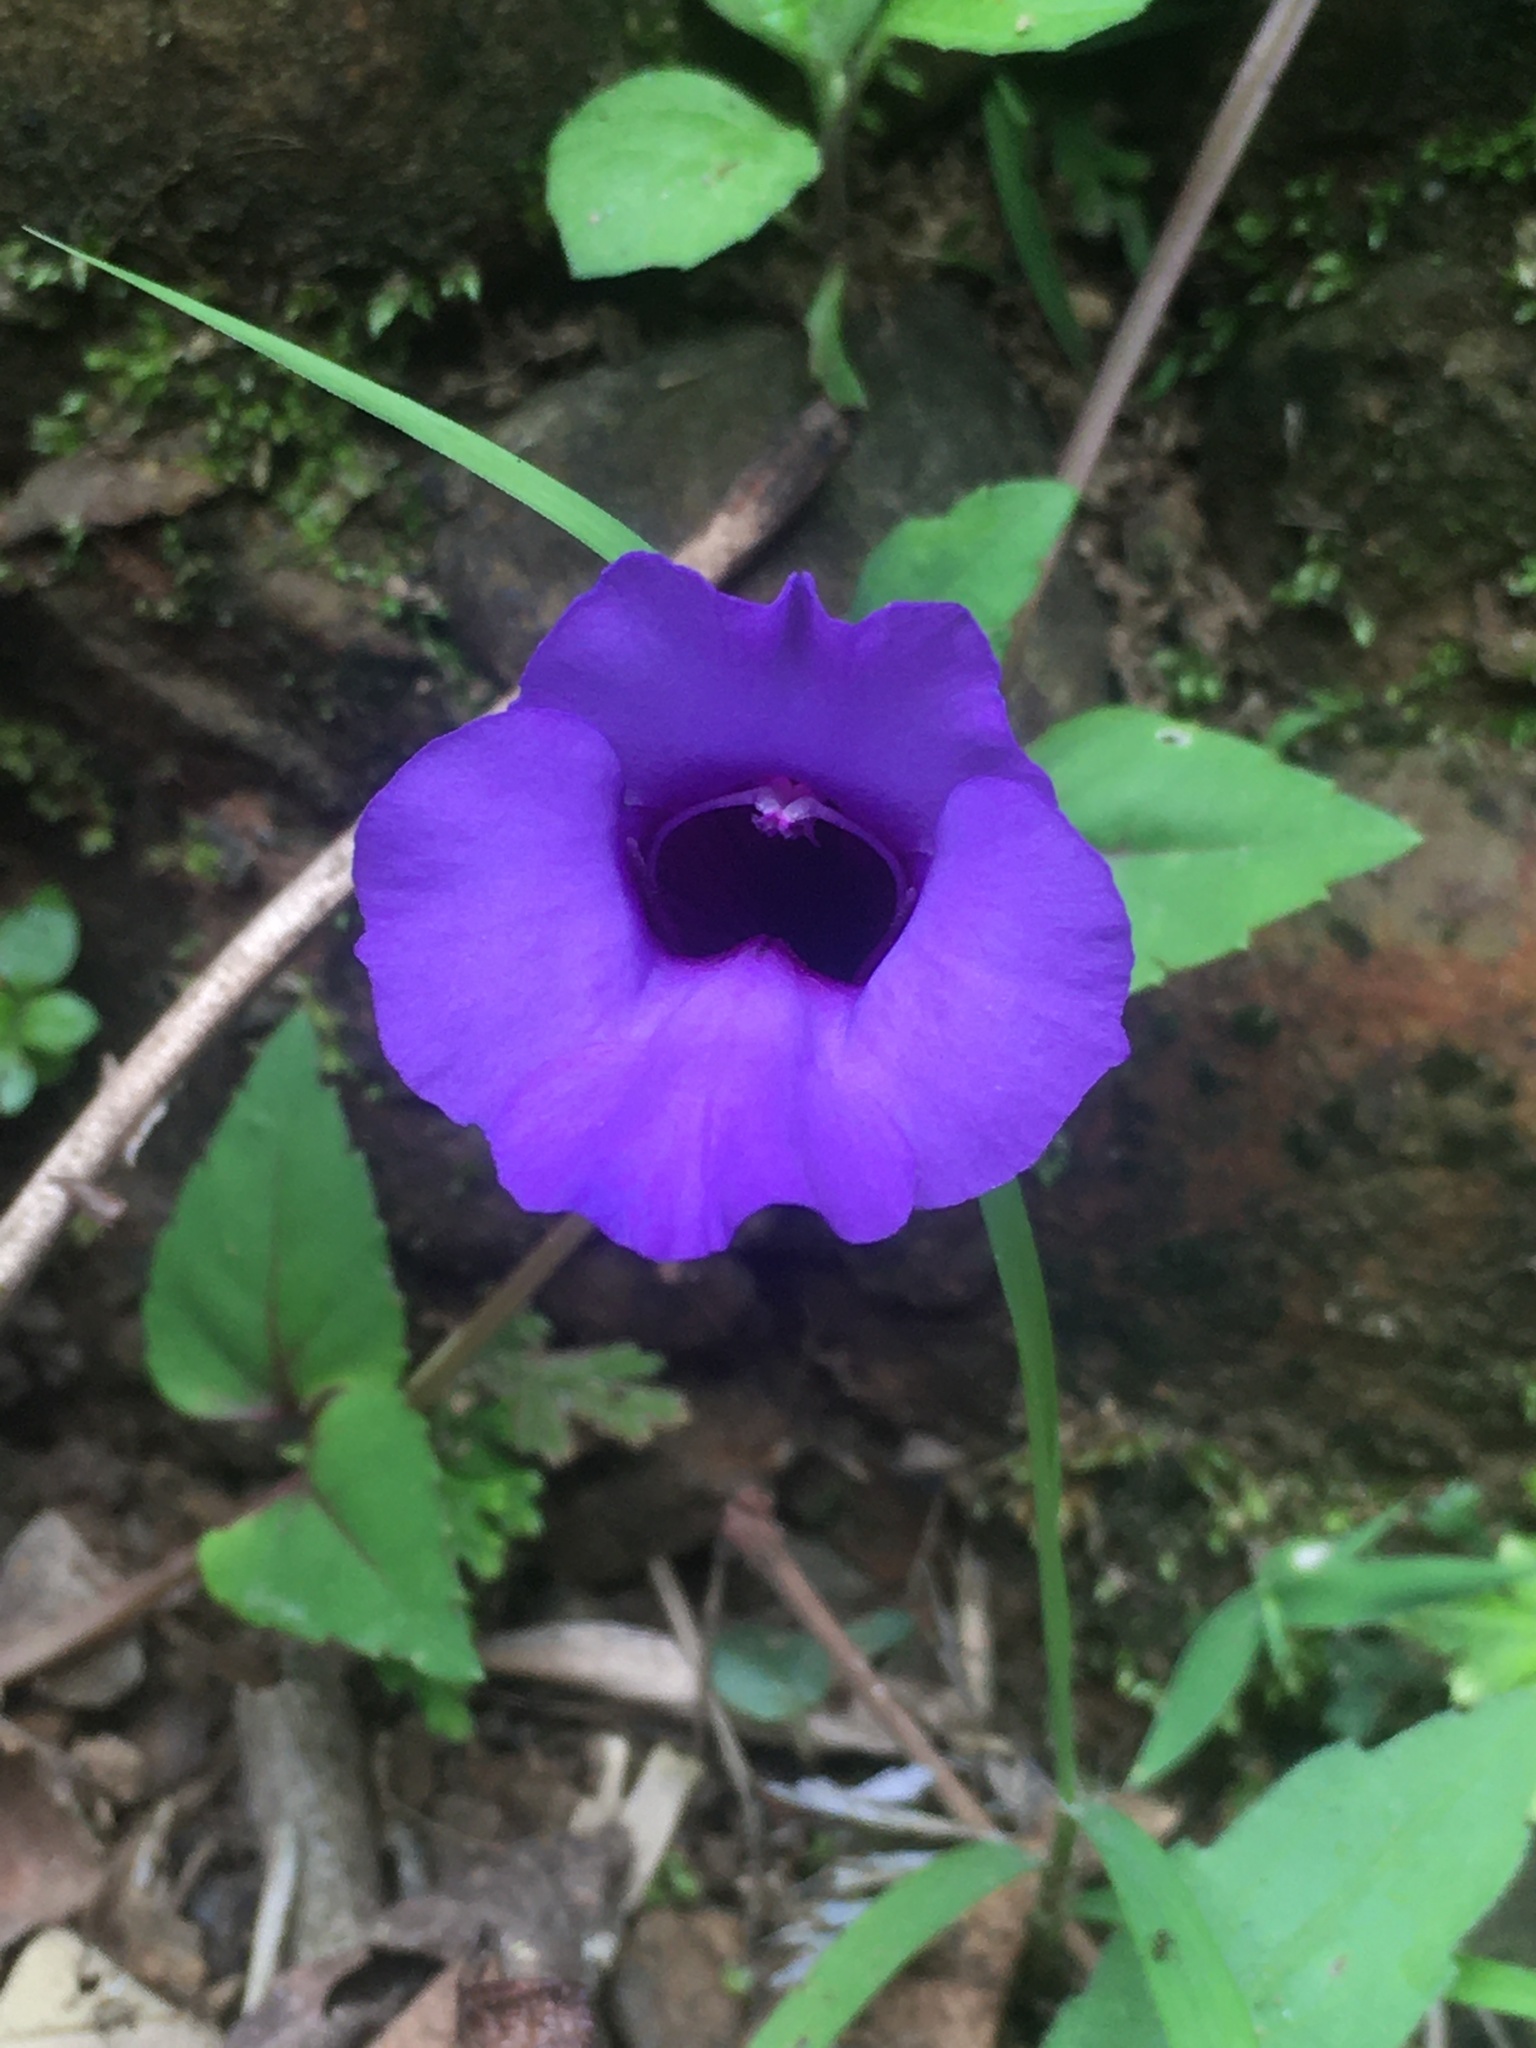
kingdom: Plantae
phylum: Tracheophyta
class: Magnoliopsida
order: Lamiales
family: Linderniaceae
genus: Torenia
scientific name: Torenia concolor
